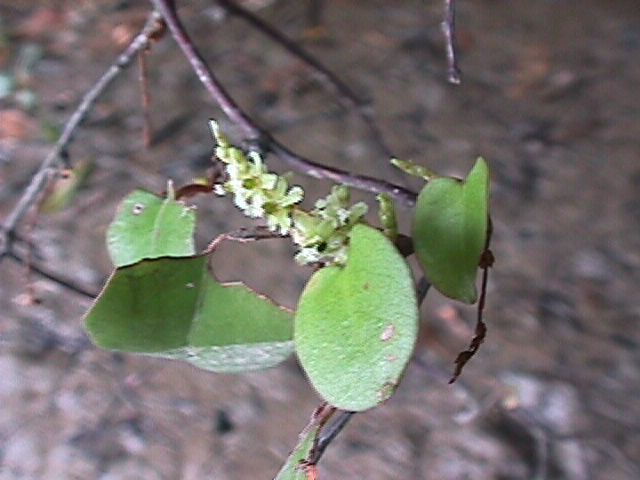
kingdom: Plantae
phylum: Tracheophyta
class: Magnoliopsida
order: Caryophyllales
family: Polygonaceae
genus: Muehlenbeckia
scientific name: Muehlenbeckia complexa
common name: Wireplant
